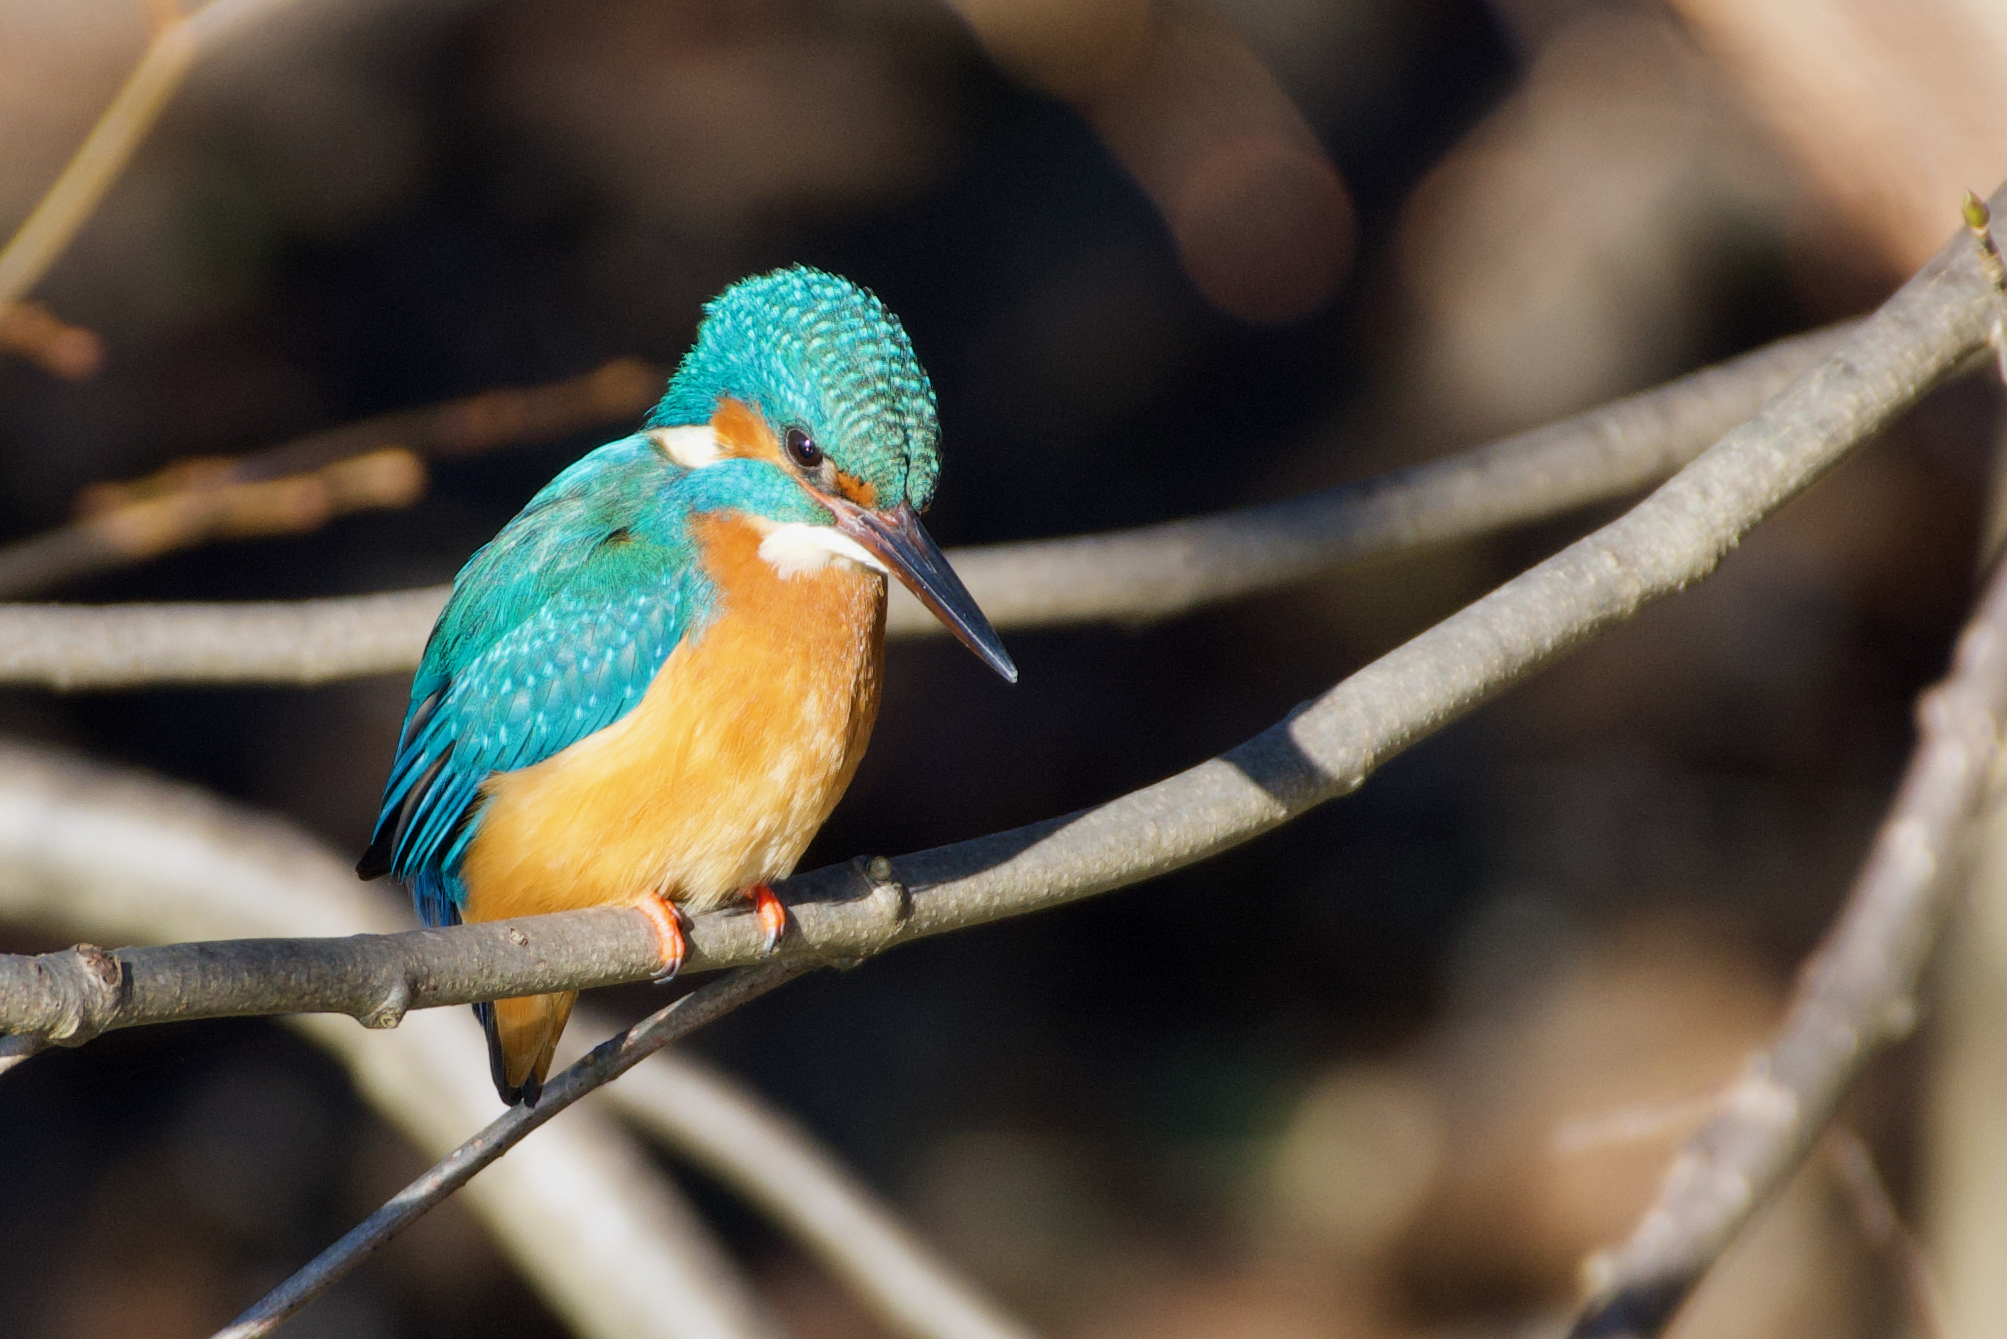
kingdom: Animalia
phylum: Chordata
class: Aves
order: Coraciiformes
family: Alcedinidae
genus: Alcedo
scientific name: Alcedo atthis
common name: Common kingfisher
